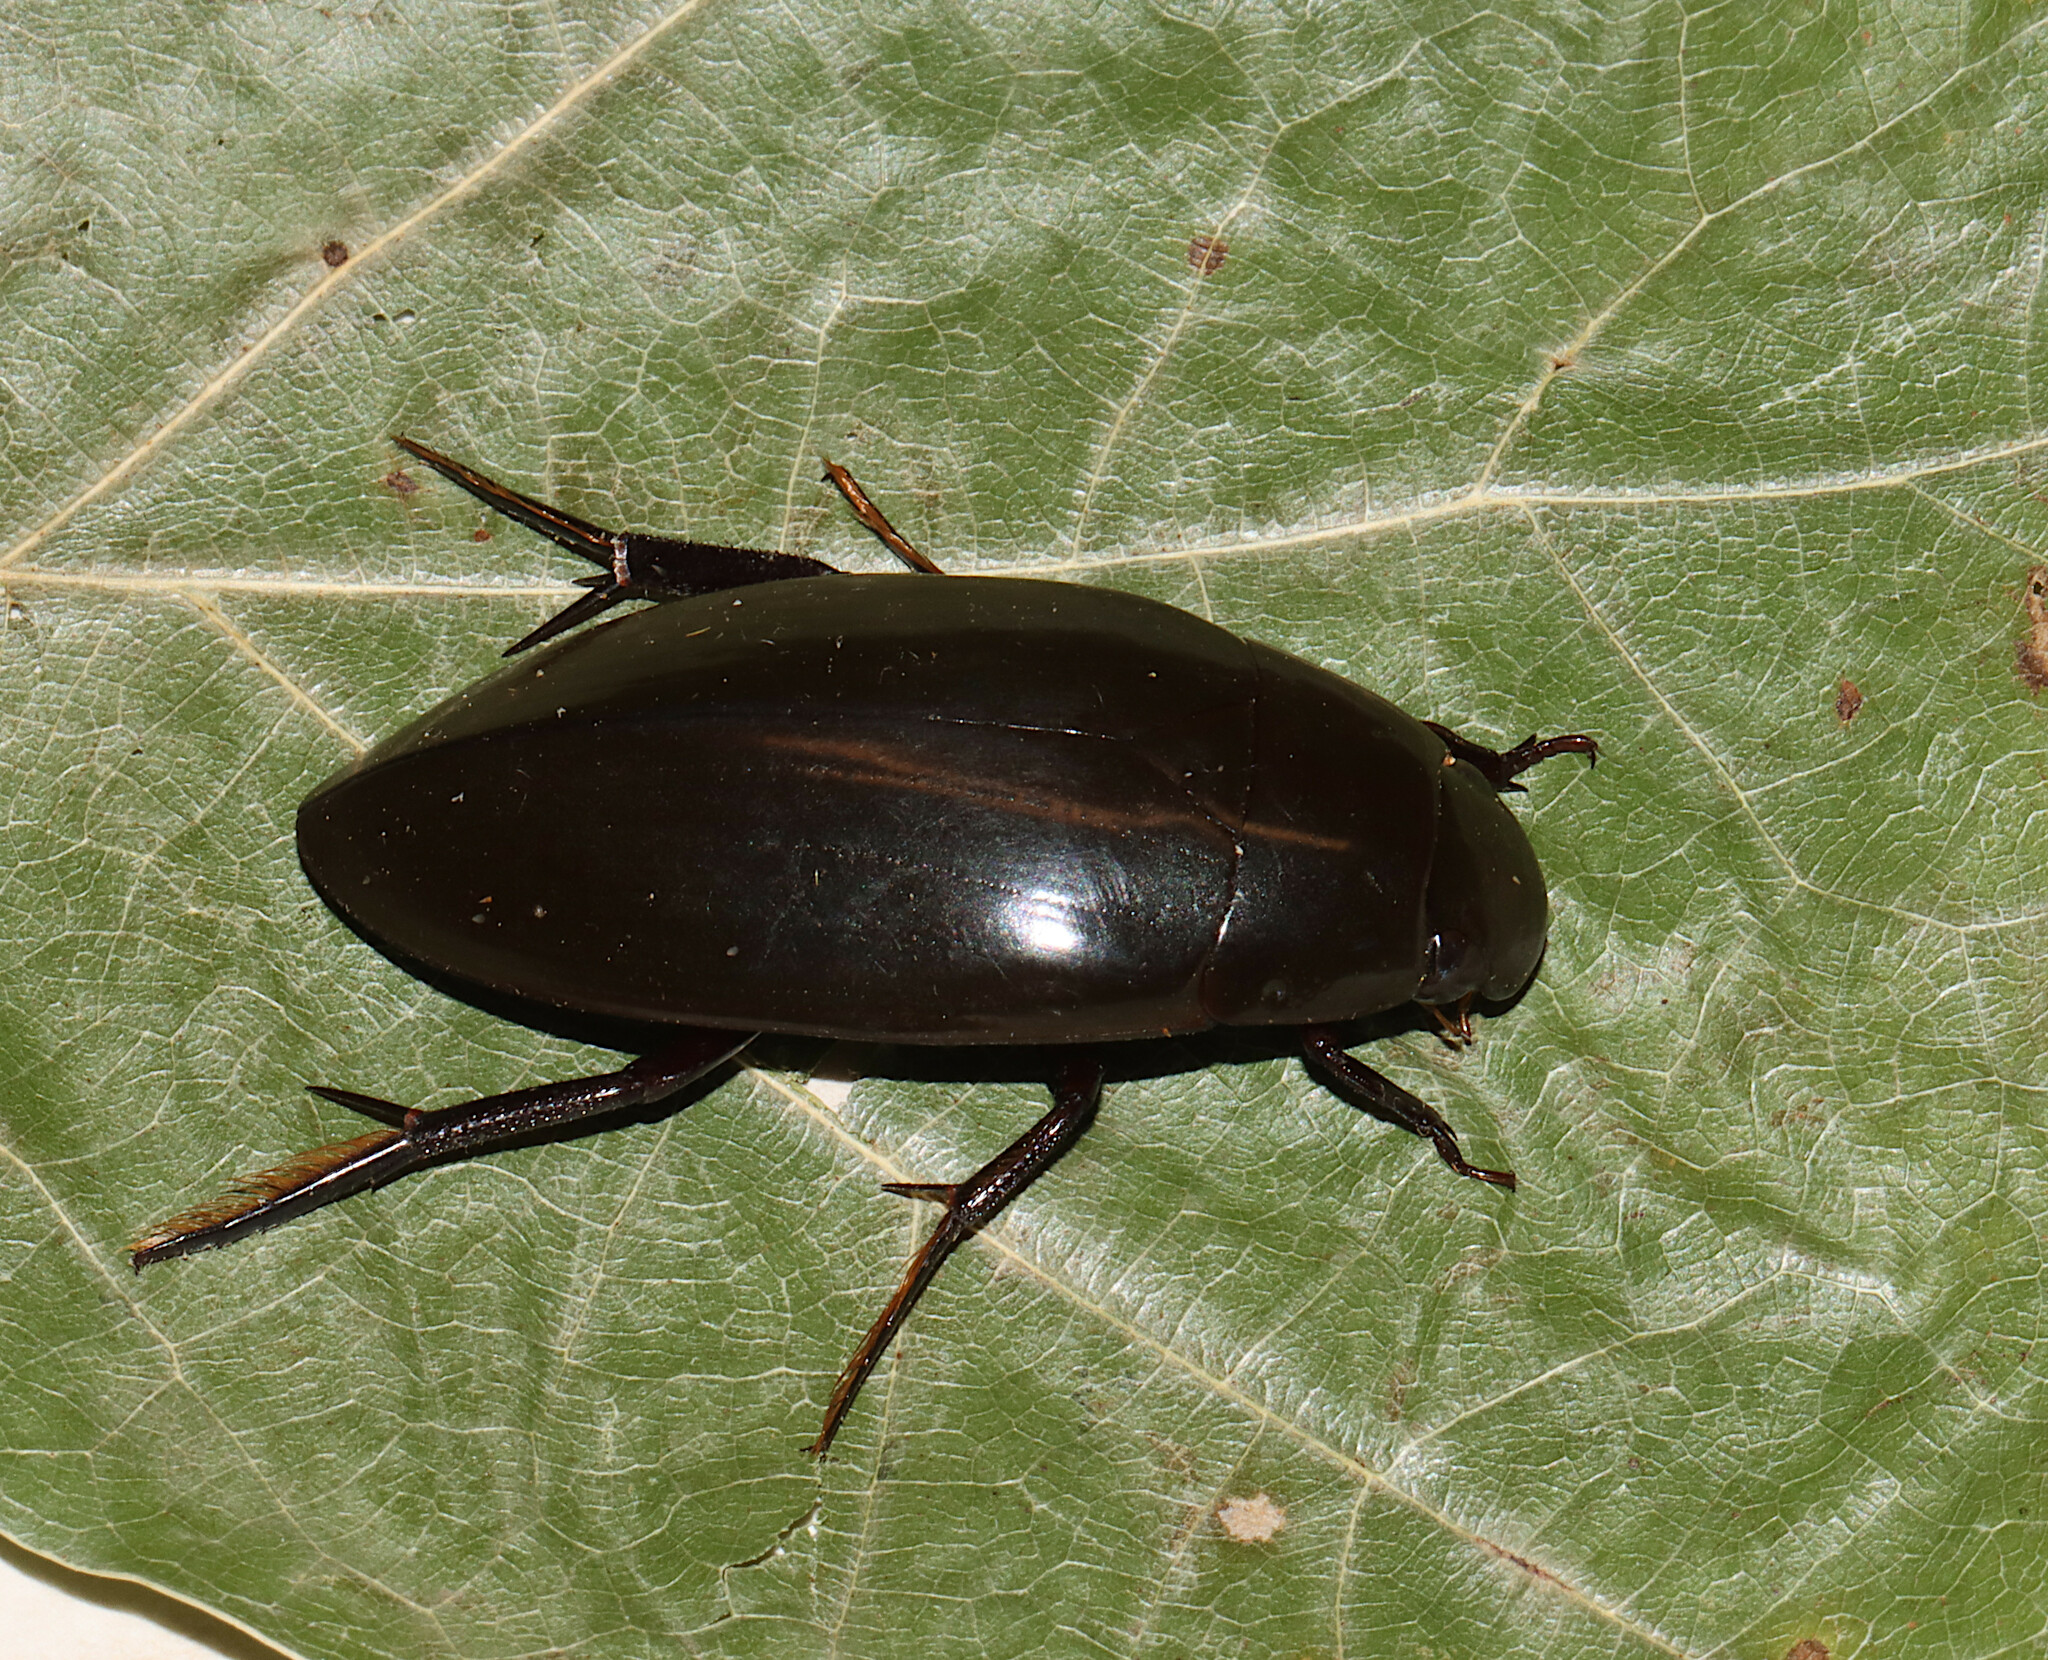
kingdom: Animalia
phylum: Arthropoda
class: Insecta
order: Coleoptera
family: Hydrophilidae
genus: Hydrophilus
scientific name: Hydrophilus triangularis
